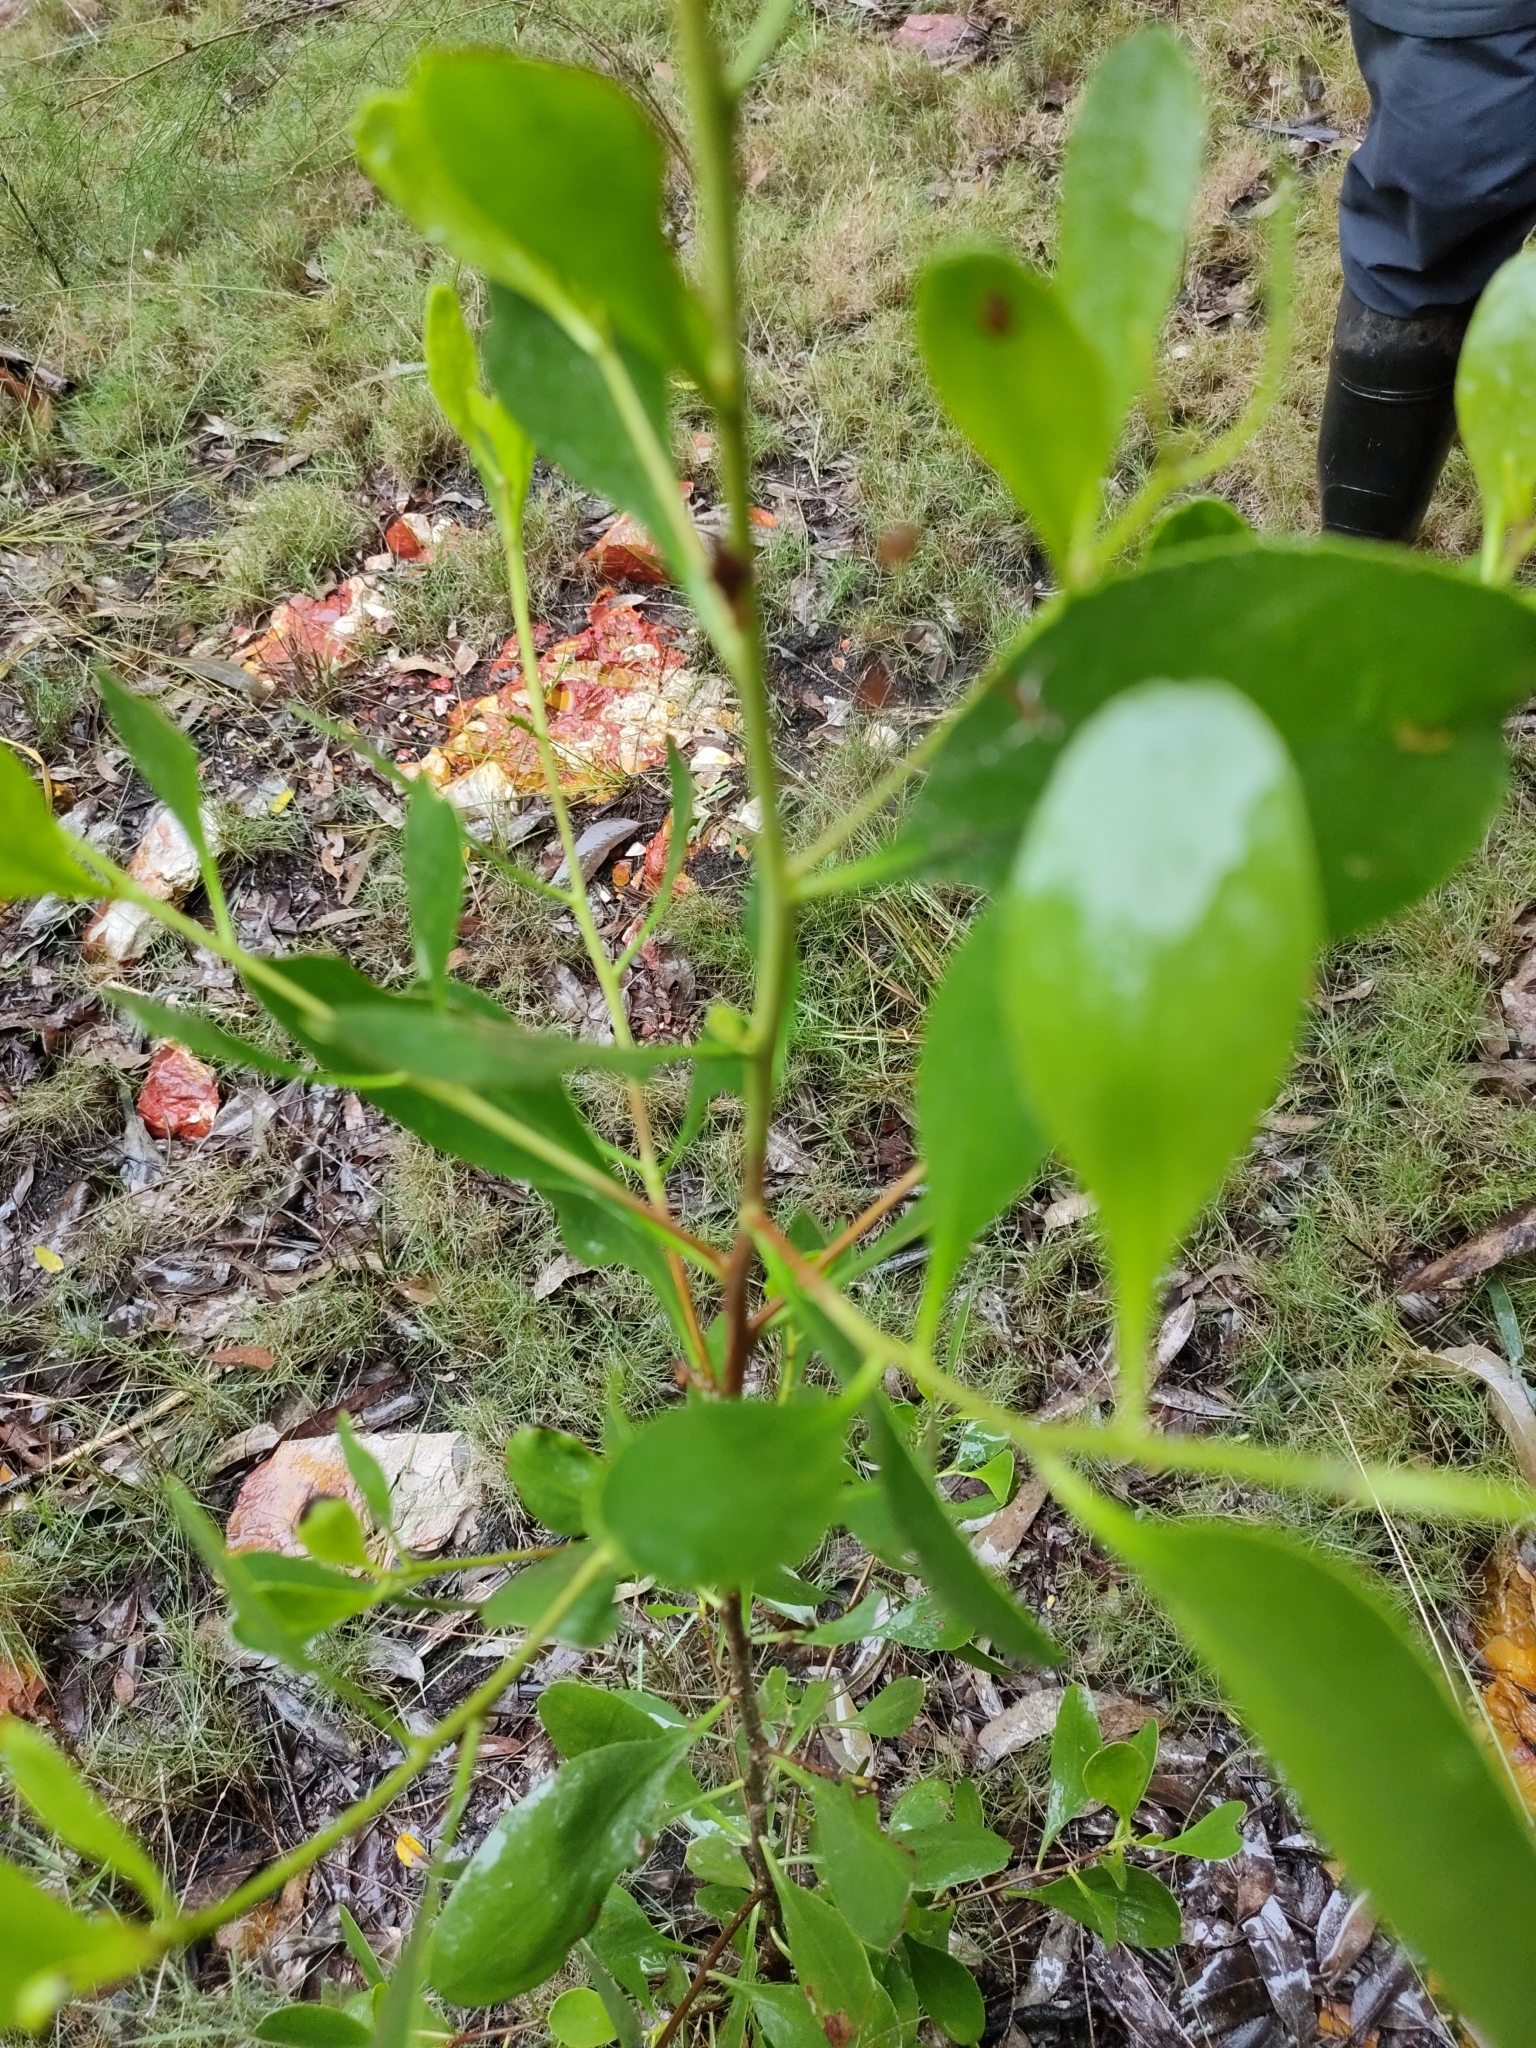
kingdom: Plantae
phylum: Tracheophyta
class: Magnoliopsida
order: Myrtales
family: Combretaceae
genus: Lumnitzera
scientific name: Lumnitzera racemosa
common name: White-flowered black mangrove
